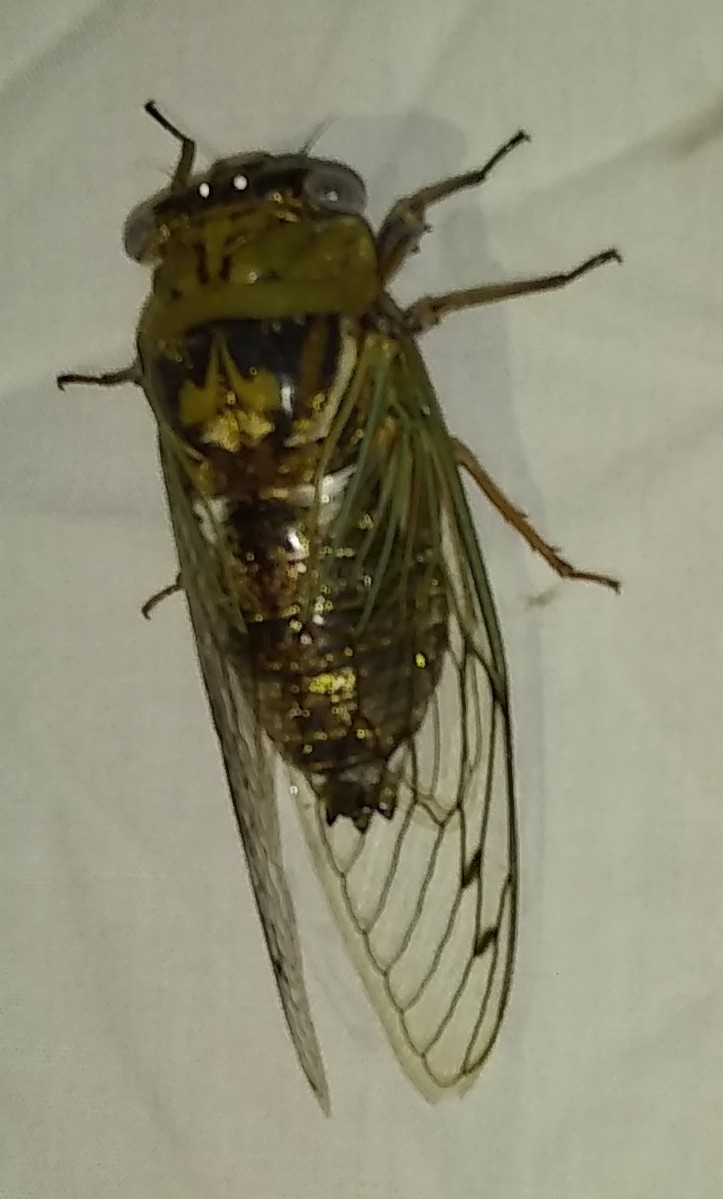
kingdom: Animalia
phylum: Arthropoda
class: Insecta
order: Hemiptera
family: Cicadidae
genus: Megatibicen
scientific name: Megatibicen resh
